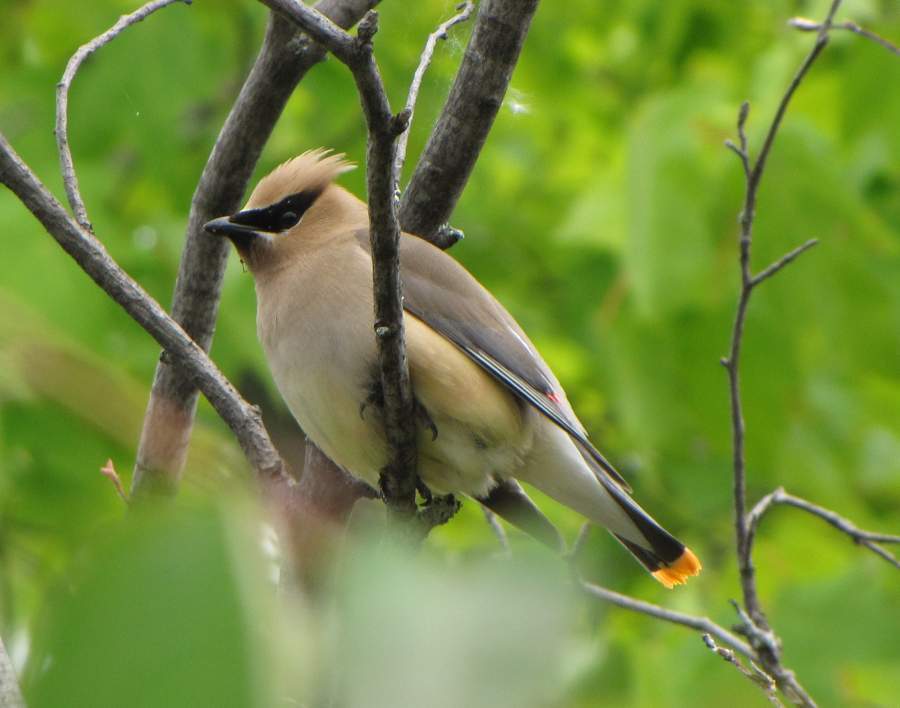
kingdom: Animalia
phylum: Chordata
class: Aves
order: Passeriformes
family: Bombycillidae
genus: Bombycilla
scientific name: Bombycilla cedrorum
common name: Cedar waxwing
